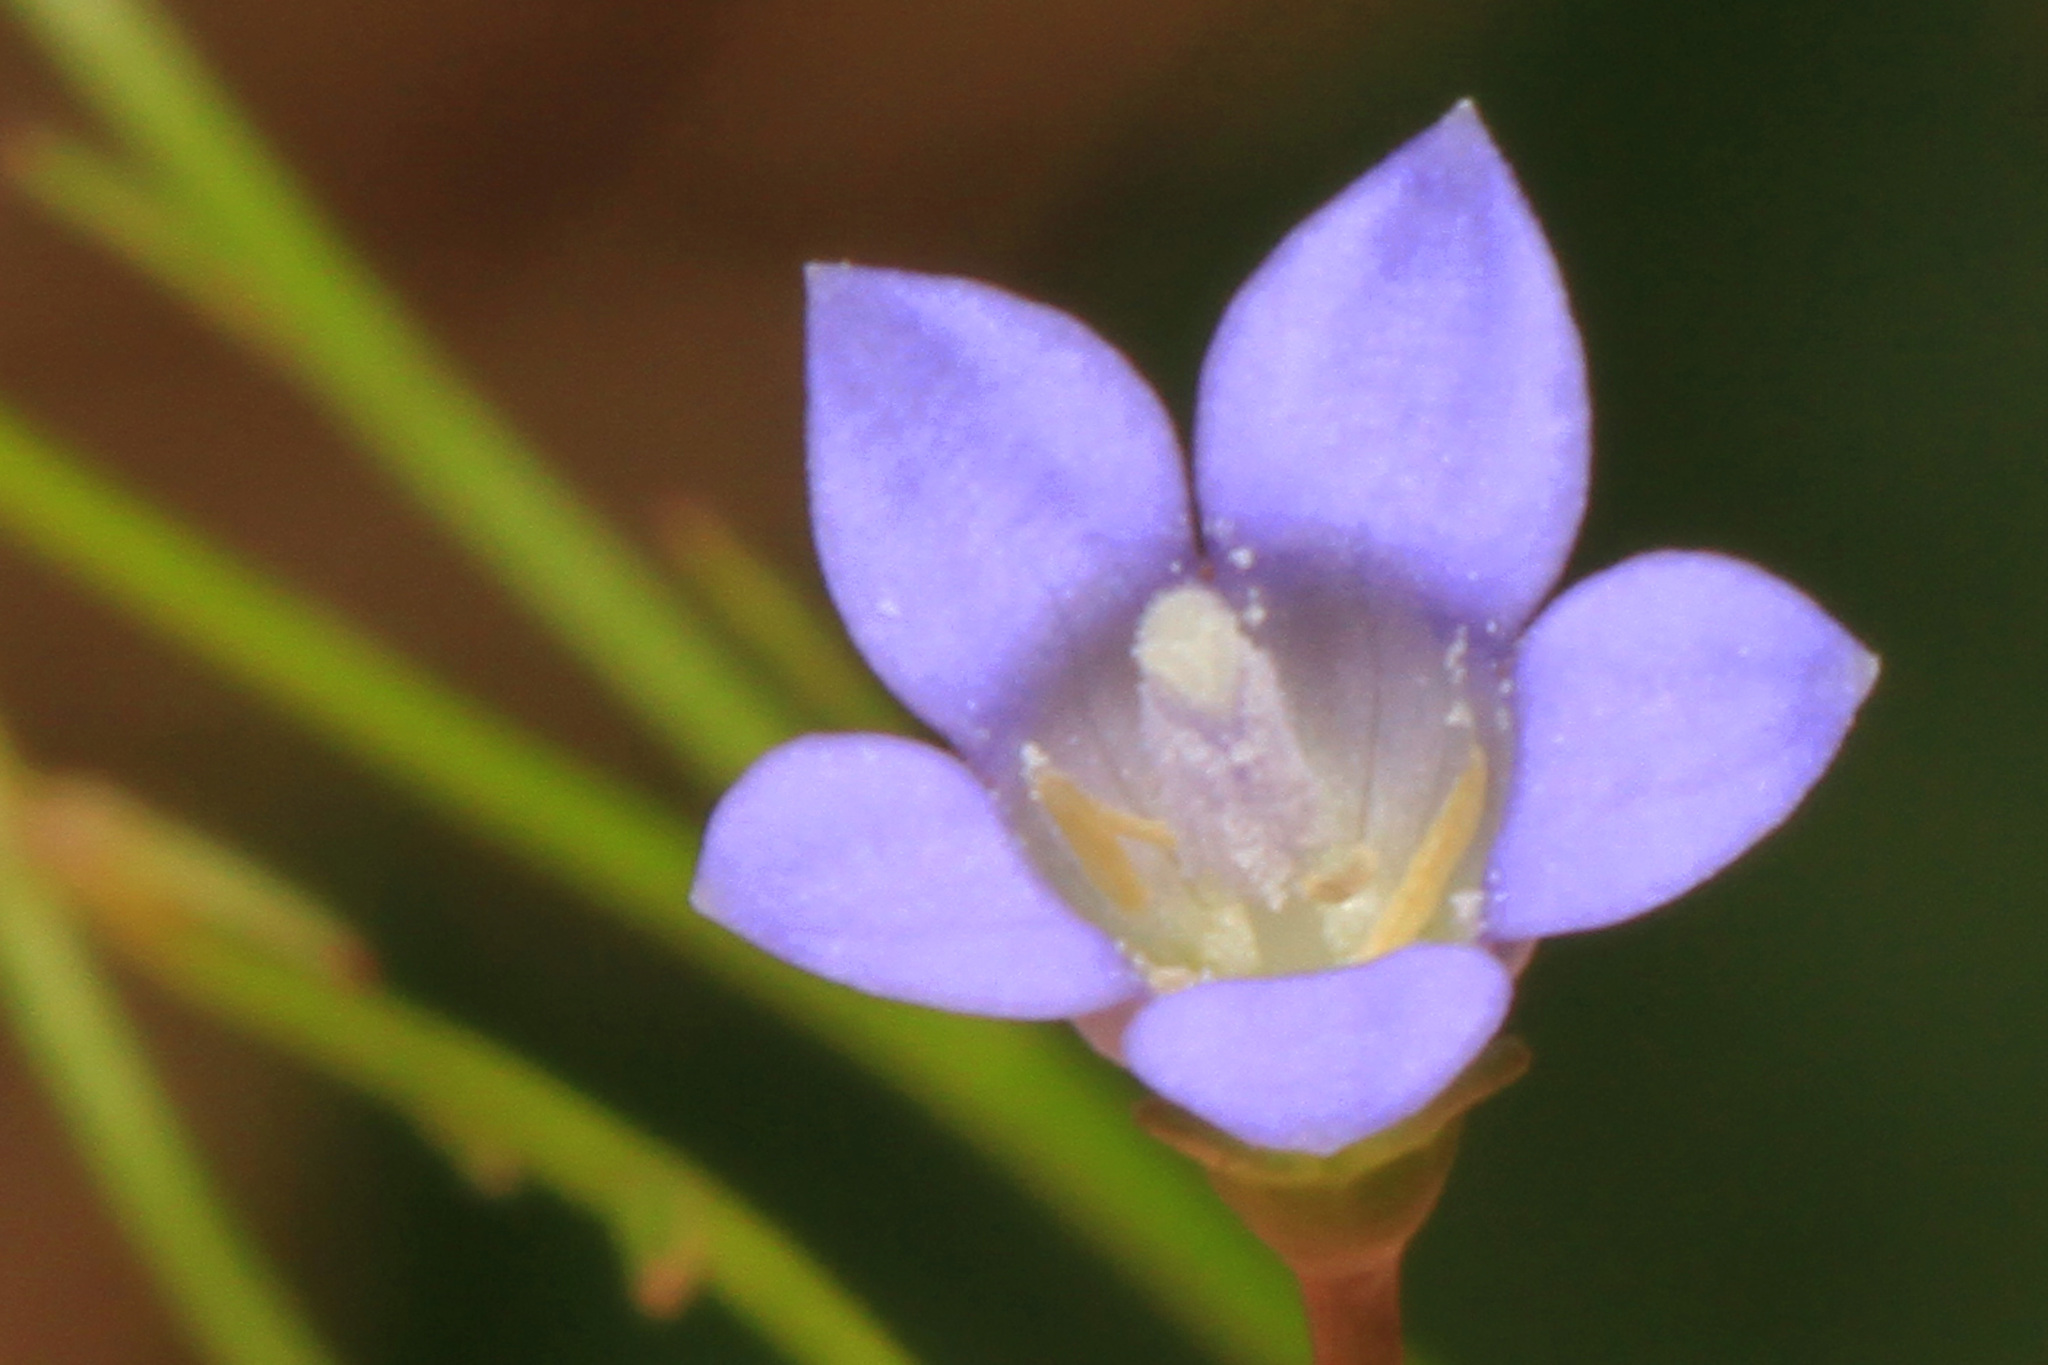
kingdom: Plantae
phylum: Tracheophyta
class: Magnoliopsida
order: Asterales
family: Campanulaceae
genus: Wahlenbergia
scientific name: Wahlenbergia marginata
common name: Southern rockbell
